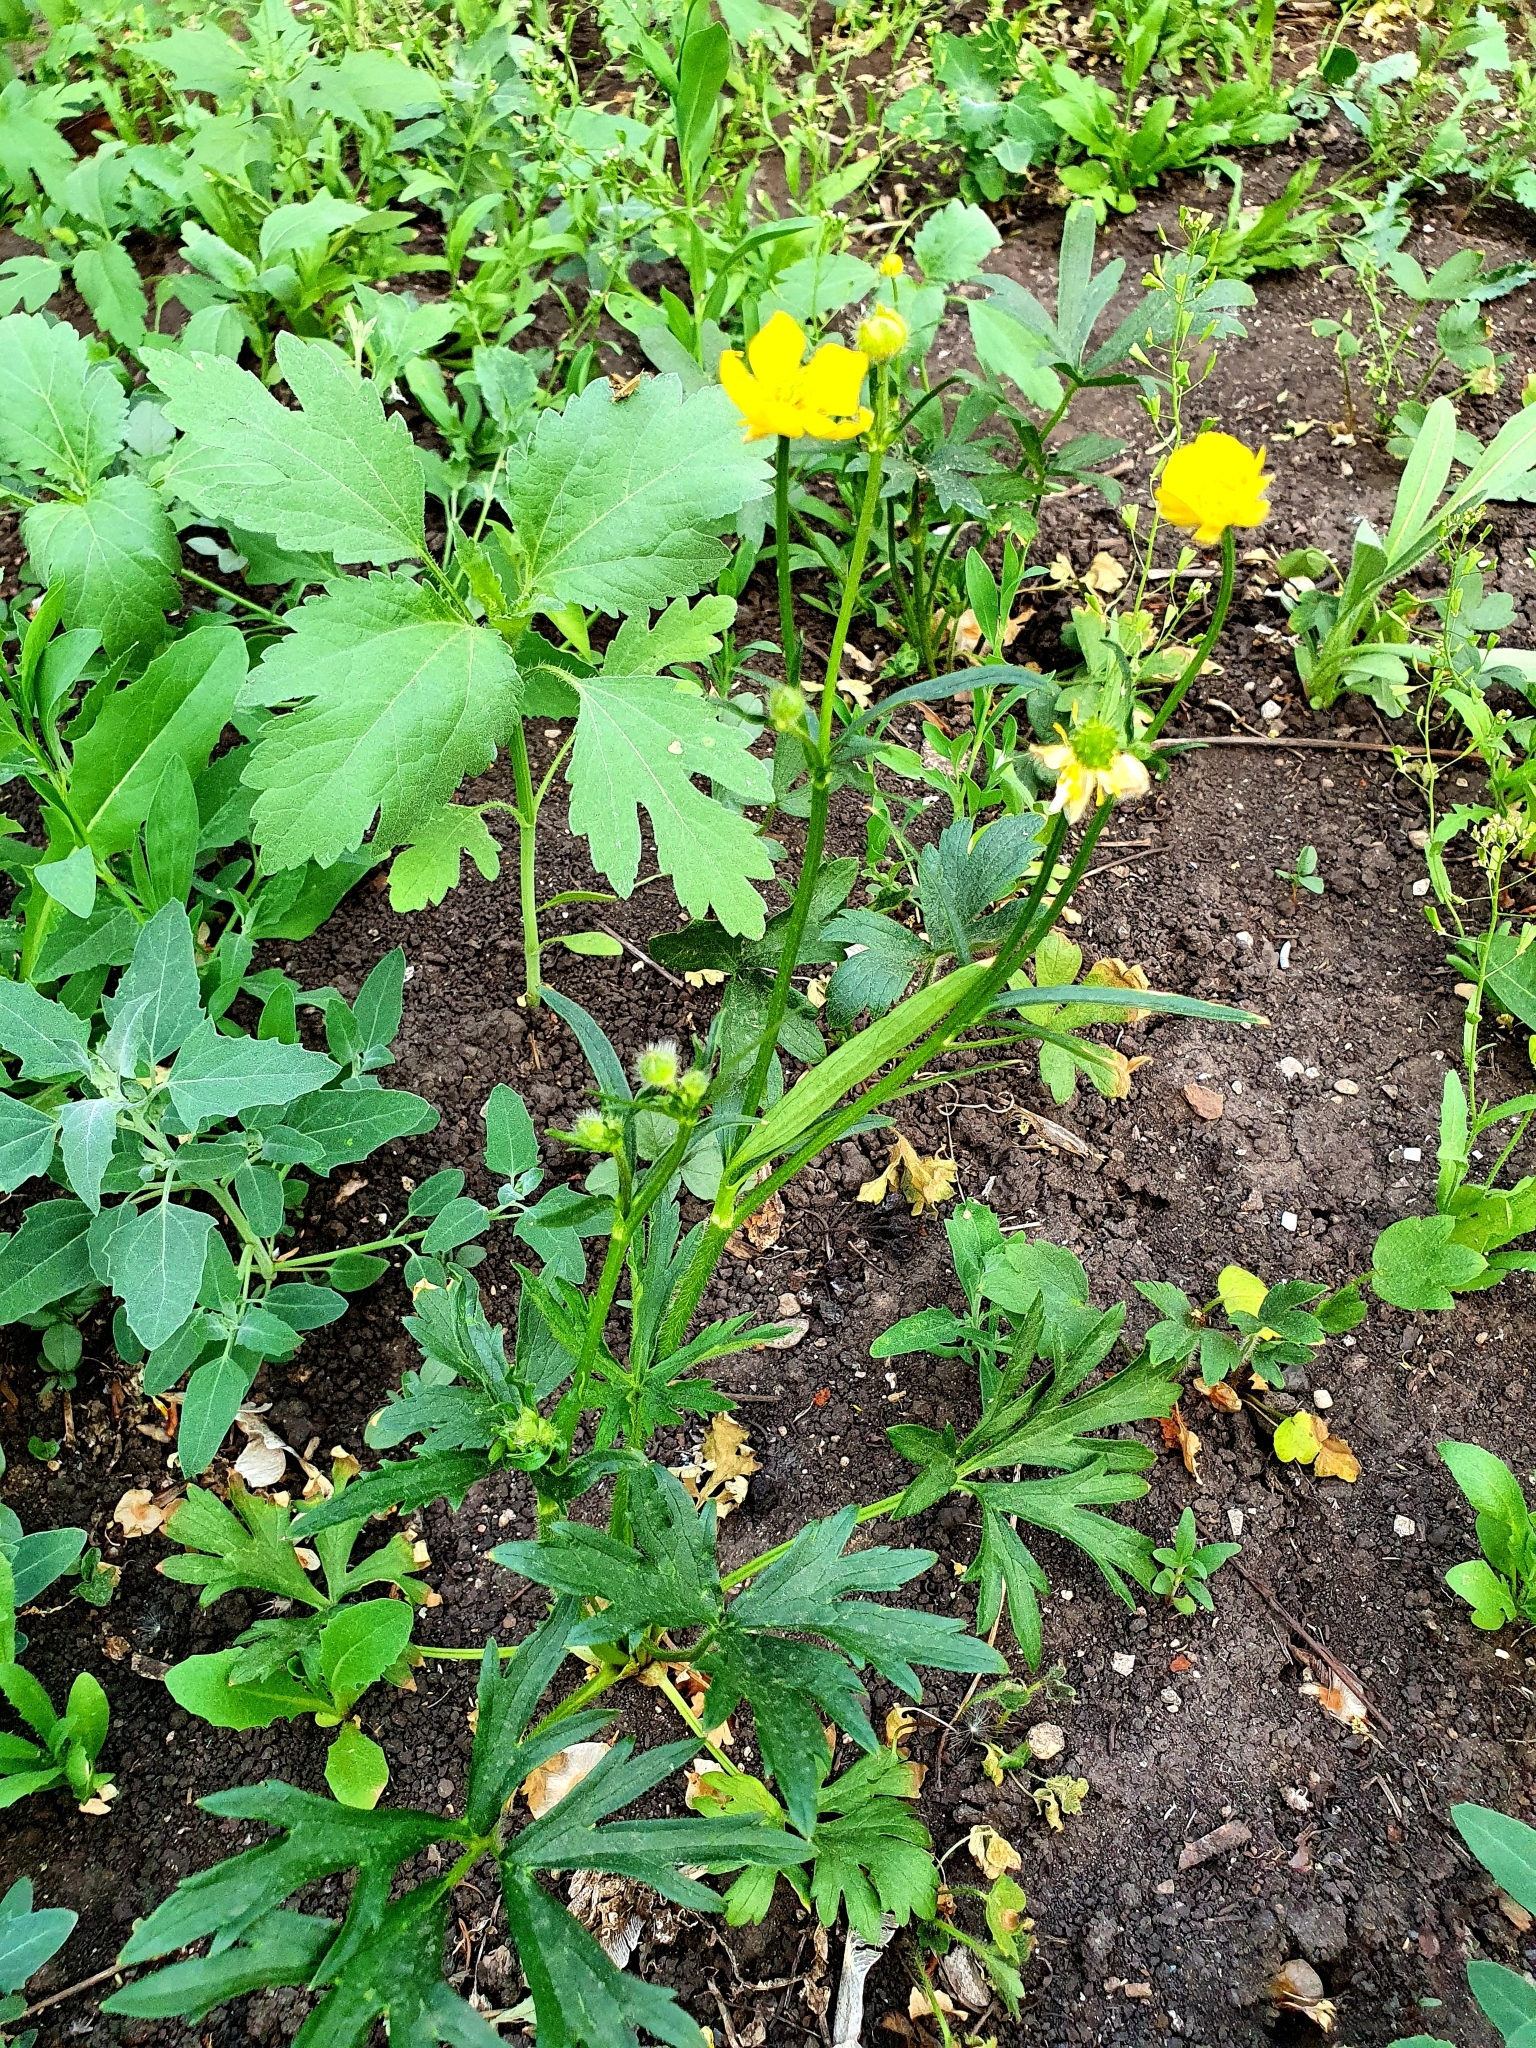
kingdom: Plantae
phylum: Tracheophyta
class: Magnoliopsida
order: Ranunculales
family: Ranunculaceae
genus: Ranunculus
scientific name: Ranunculus polyanthemos
